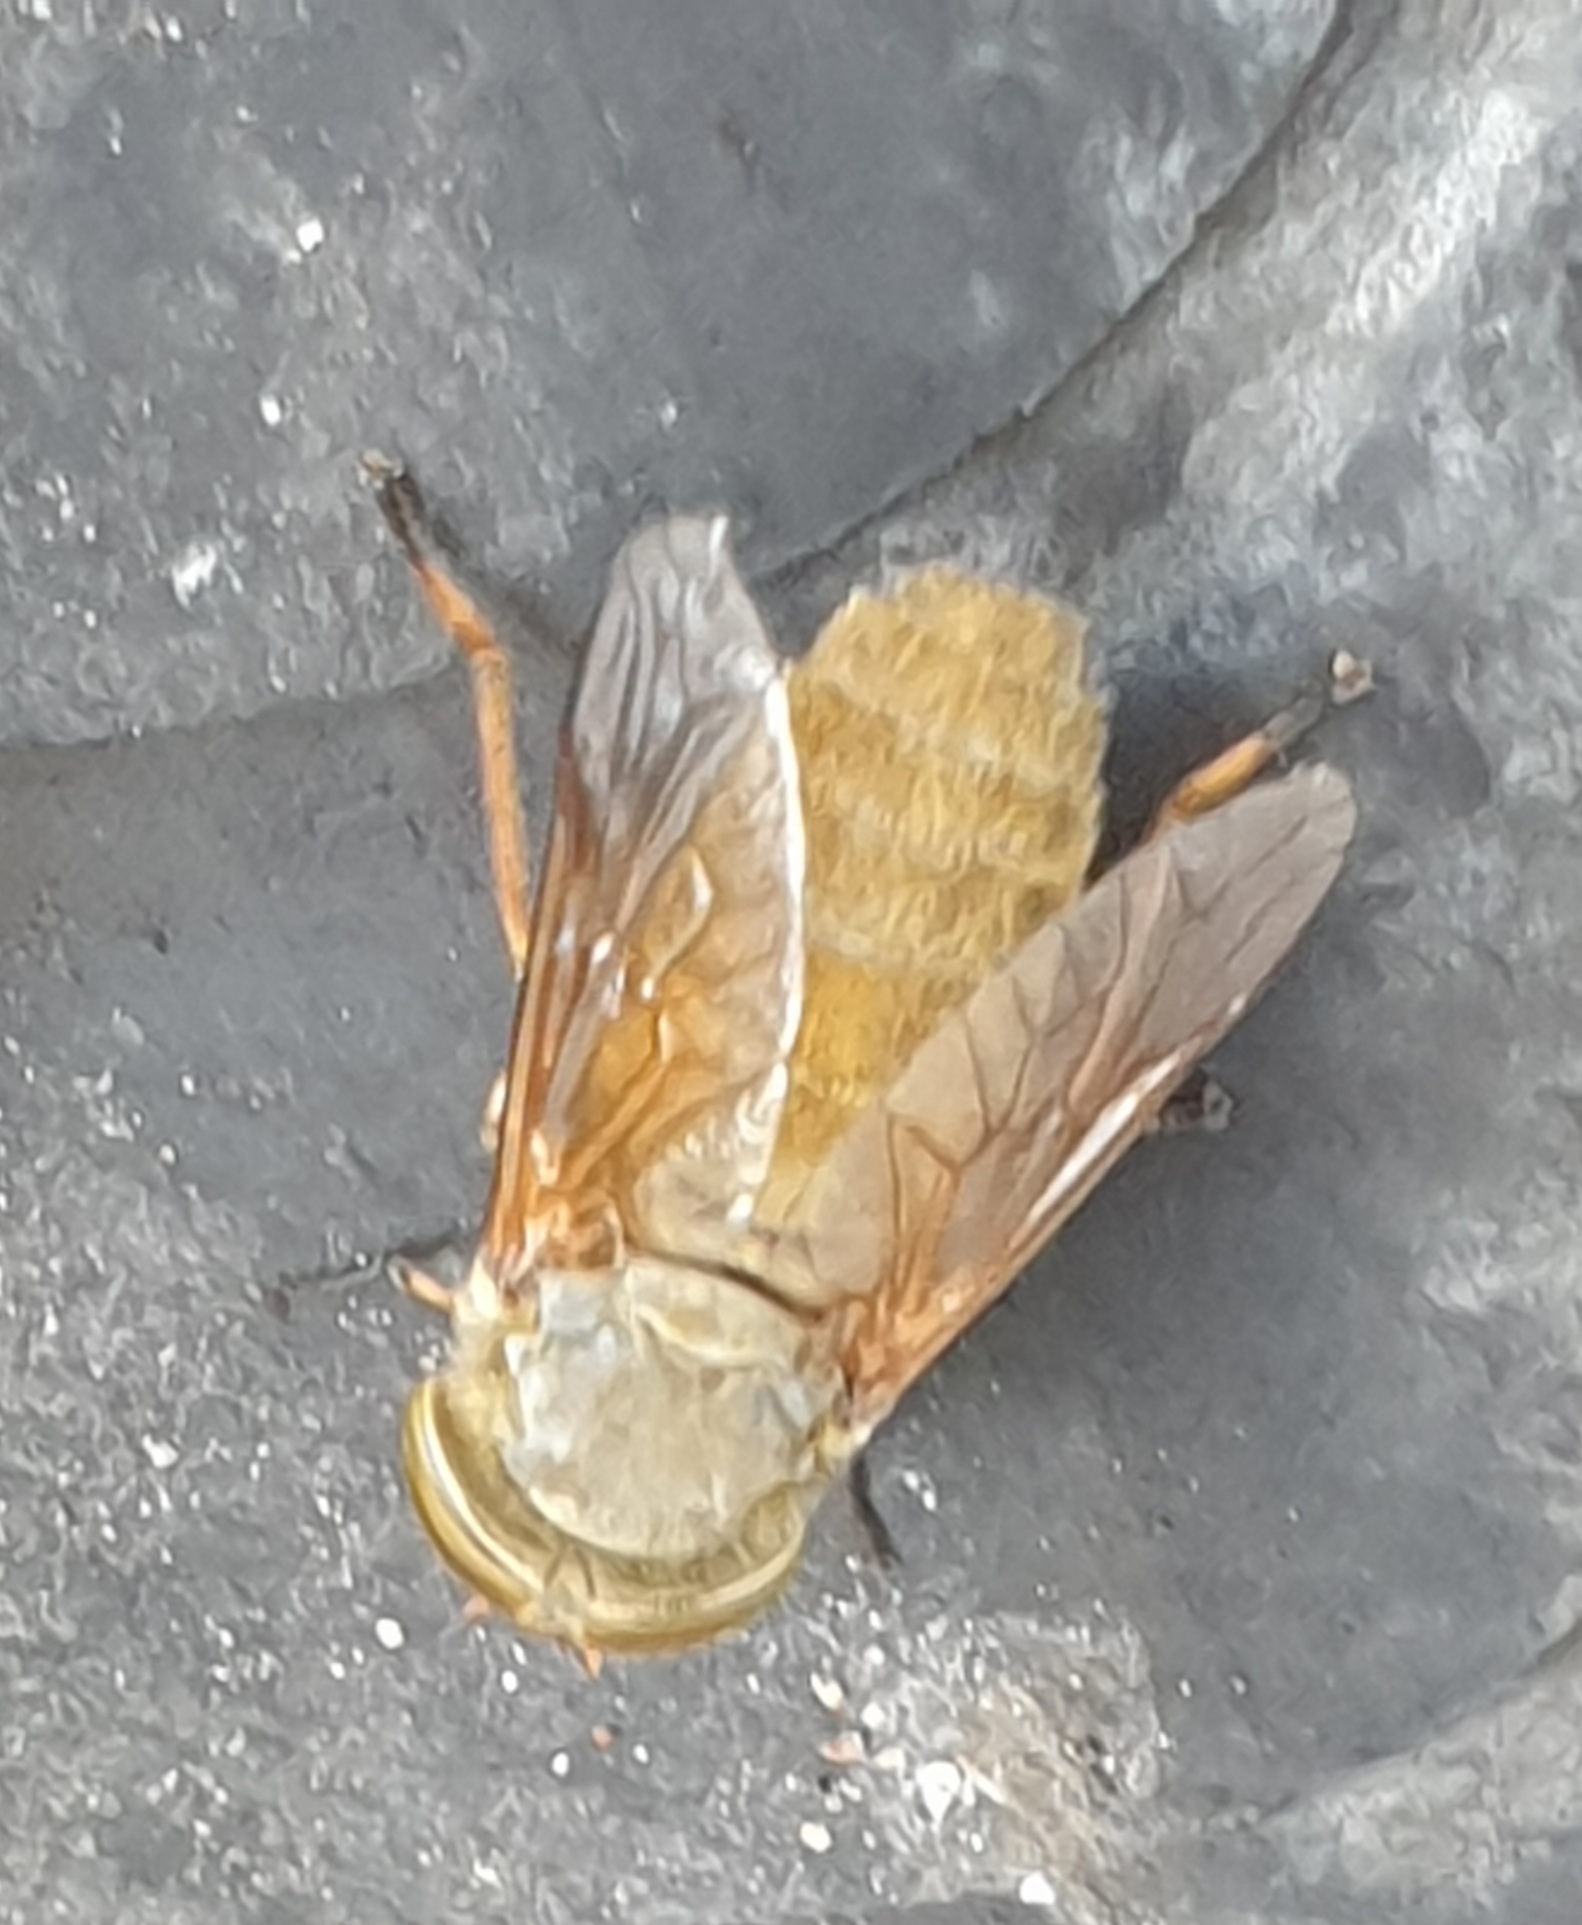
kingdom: Animalia
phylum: Arthropoda
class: Insecta
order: Diptera
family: Tabanidae
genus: Atylotus
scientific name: Atylotus fulvus
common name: Golden horsefly
